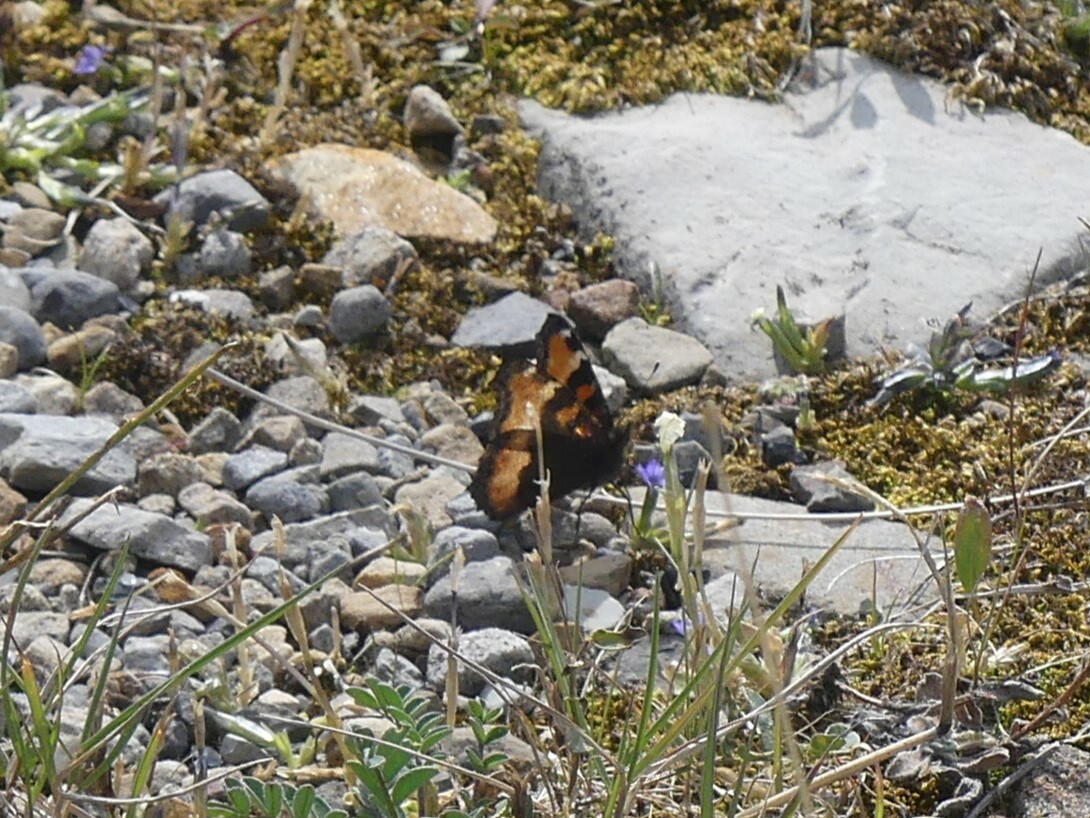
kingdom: Animalia
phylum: Arthropoda
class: Insecta
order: Lepidoptera
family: Nymphalidae
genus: Aglais
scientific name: Aglais milberti
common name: Milbert's tortoiseshell
